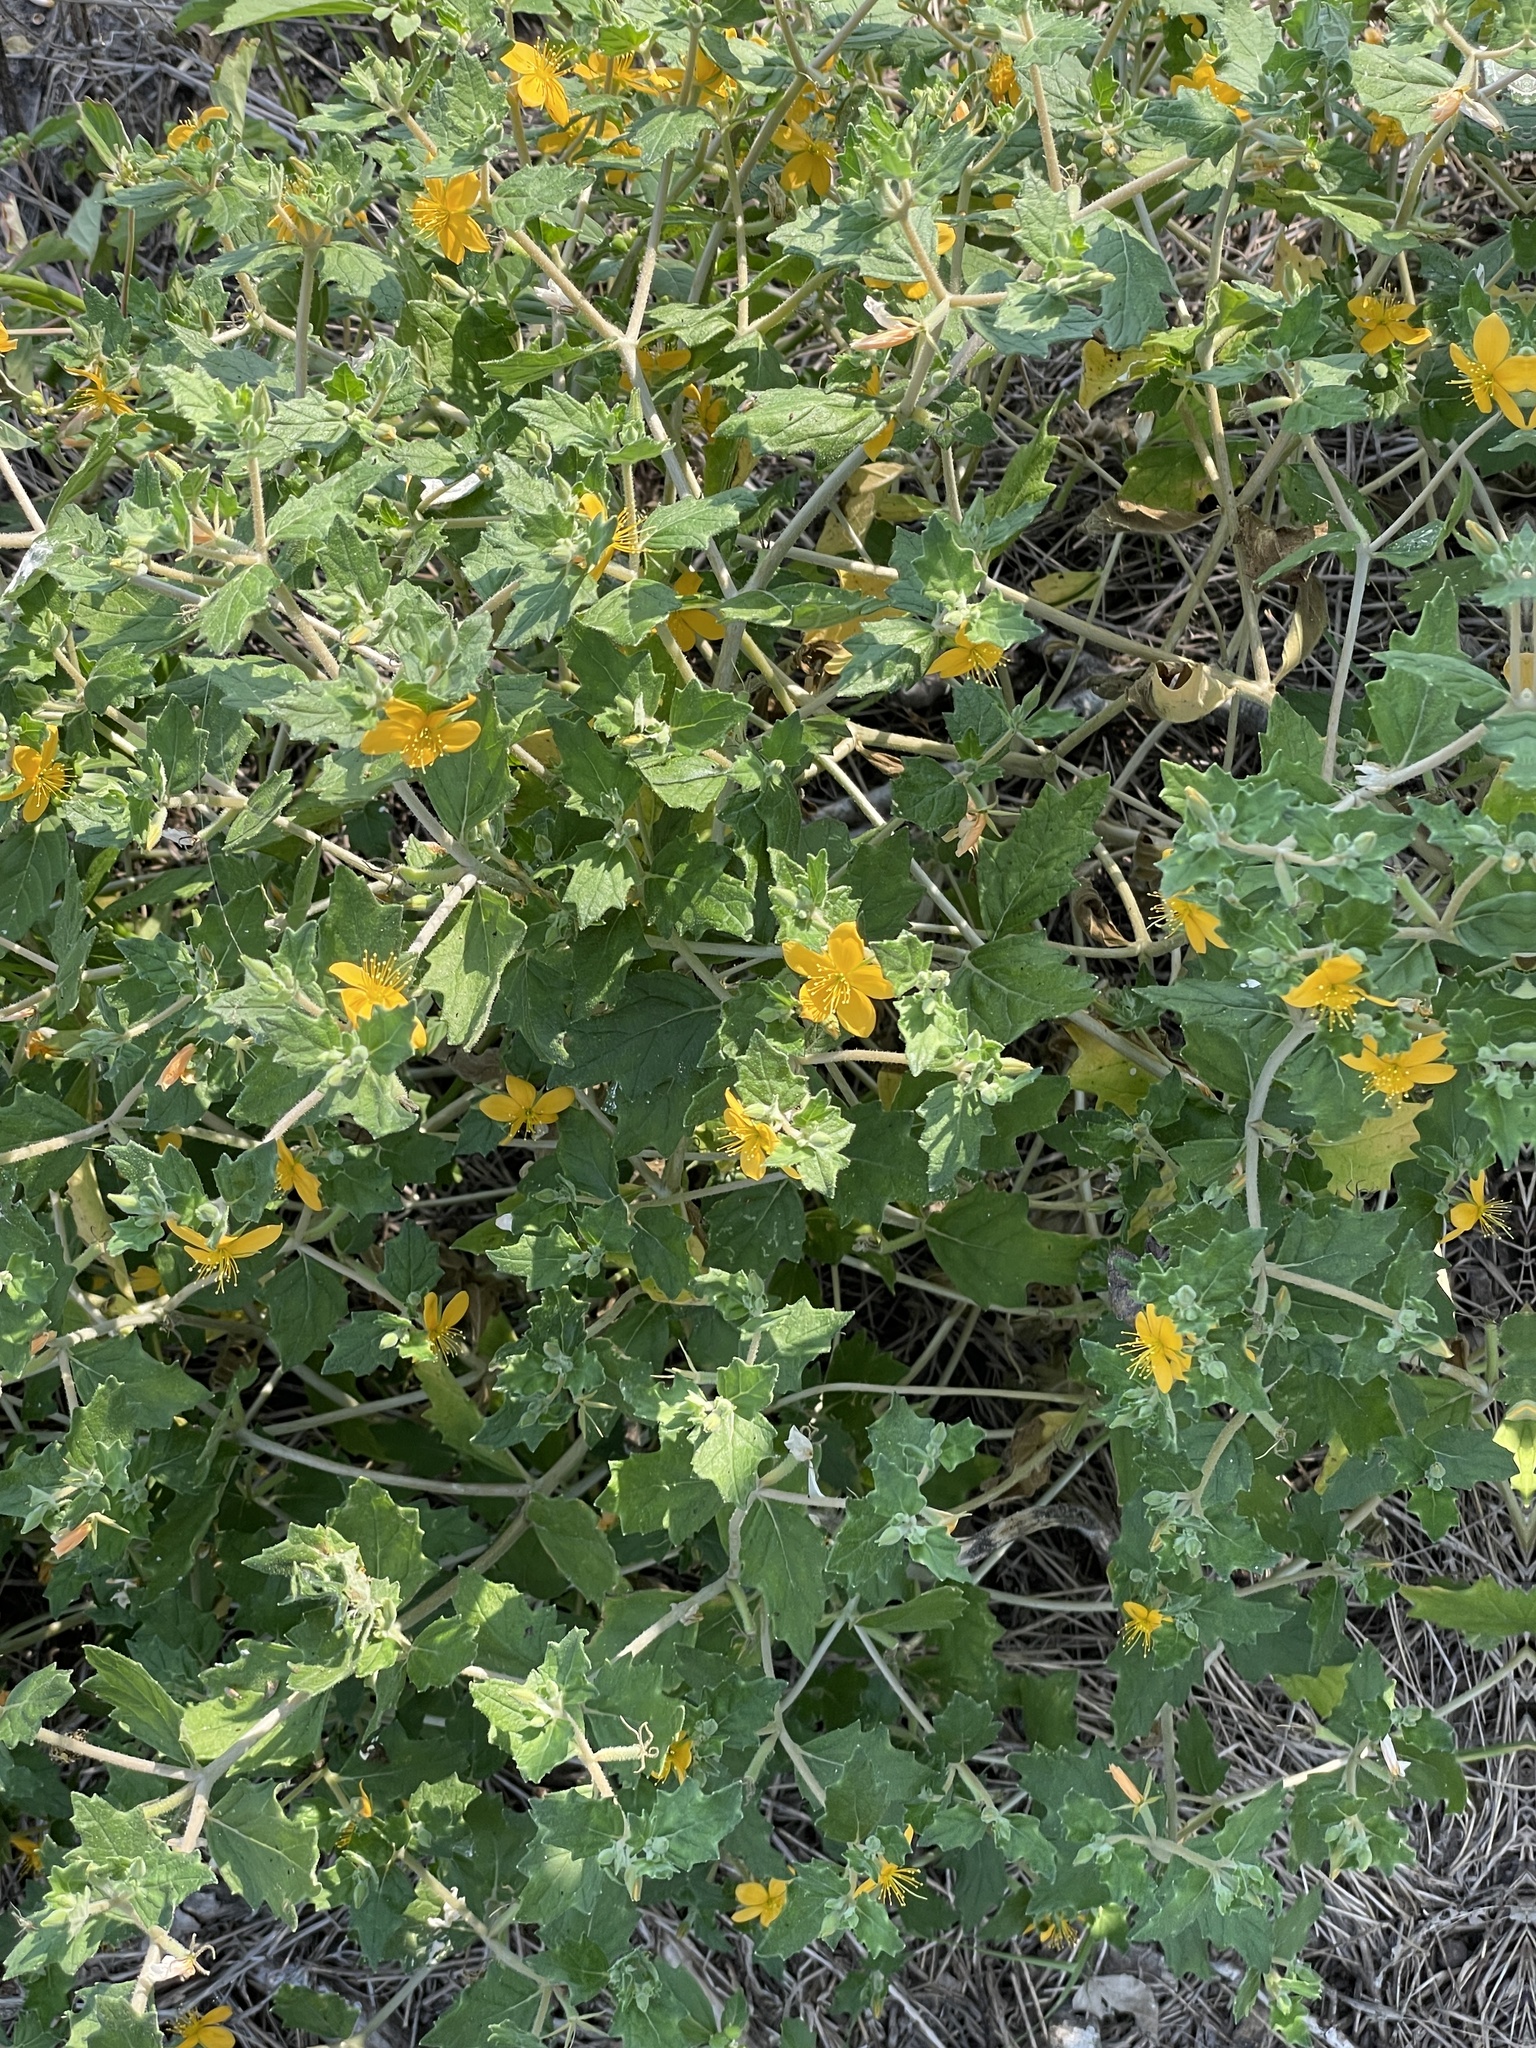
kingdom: Plantae
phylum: Tracheophyta
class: Magnoliopsida
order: Cornales
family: Loasaceae
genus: Mentzelia
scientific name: Mentzelia oligosperma
